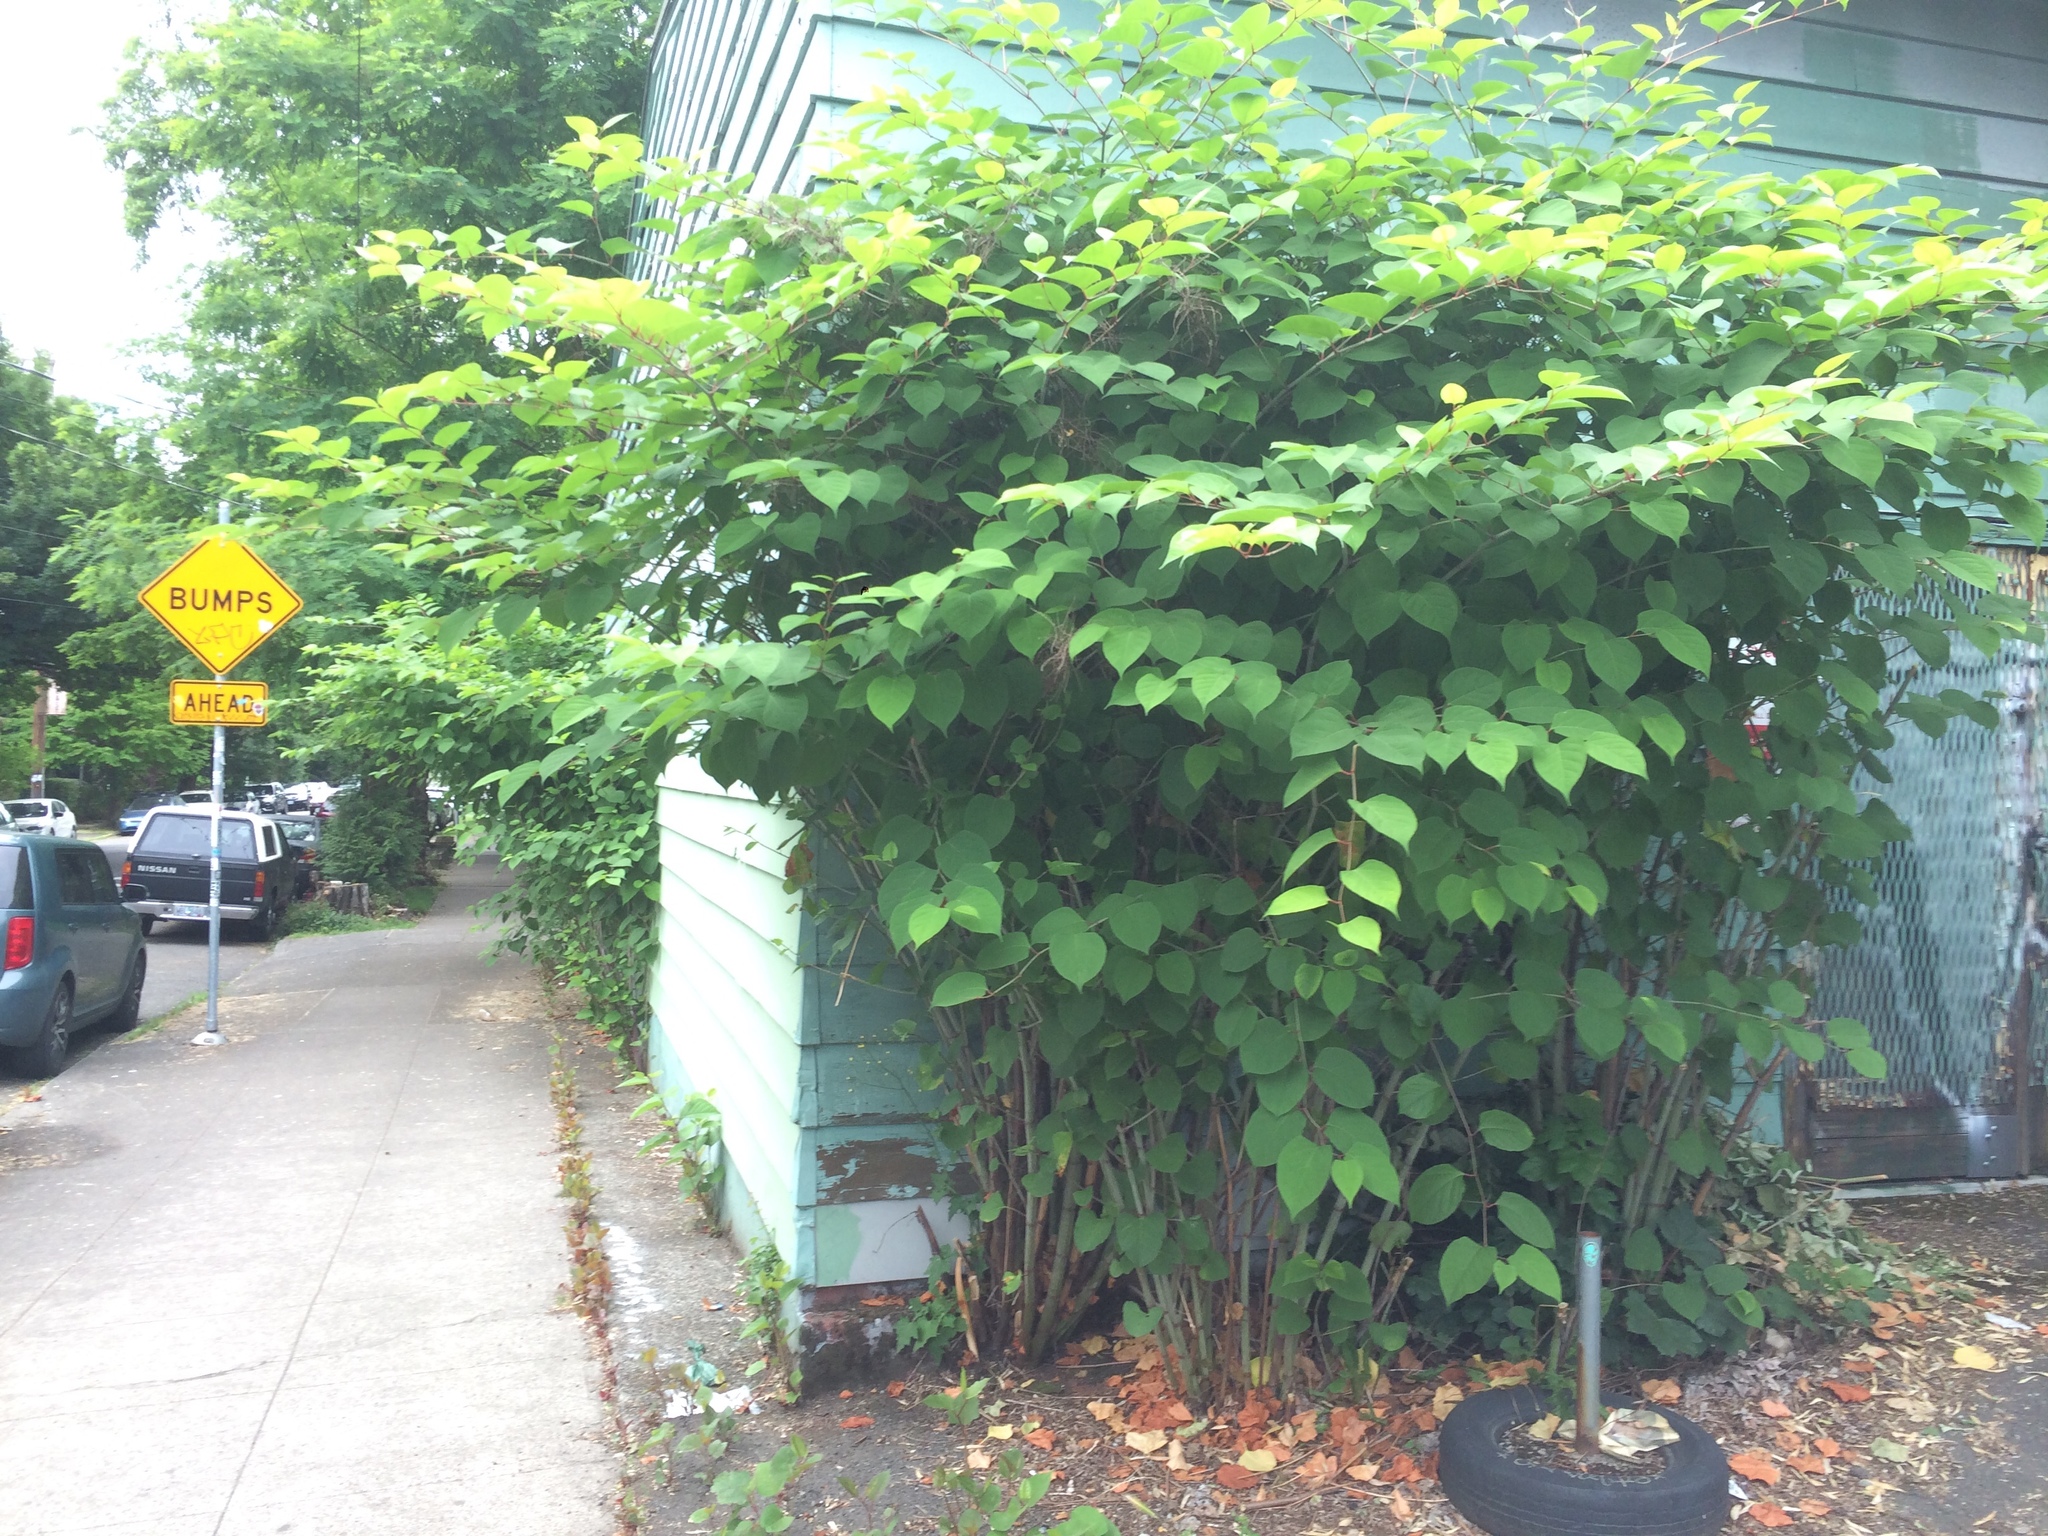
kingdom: Plantae
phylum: Tracheophyta
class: Magnoliopsida
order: Caryophyllales
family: Polygonaceae
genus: Reynoutria
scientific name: Reynoutria japonica
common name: Japanese knotweed
